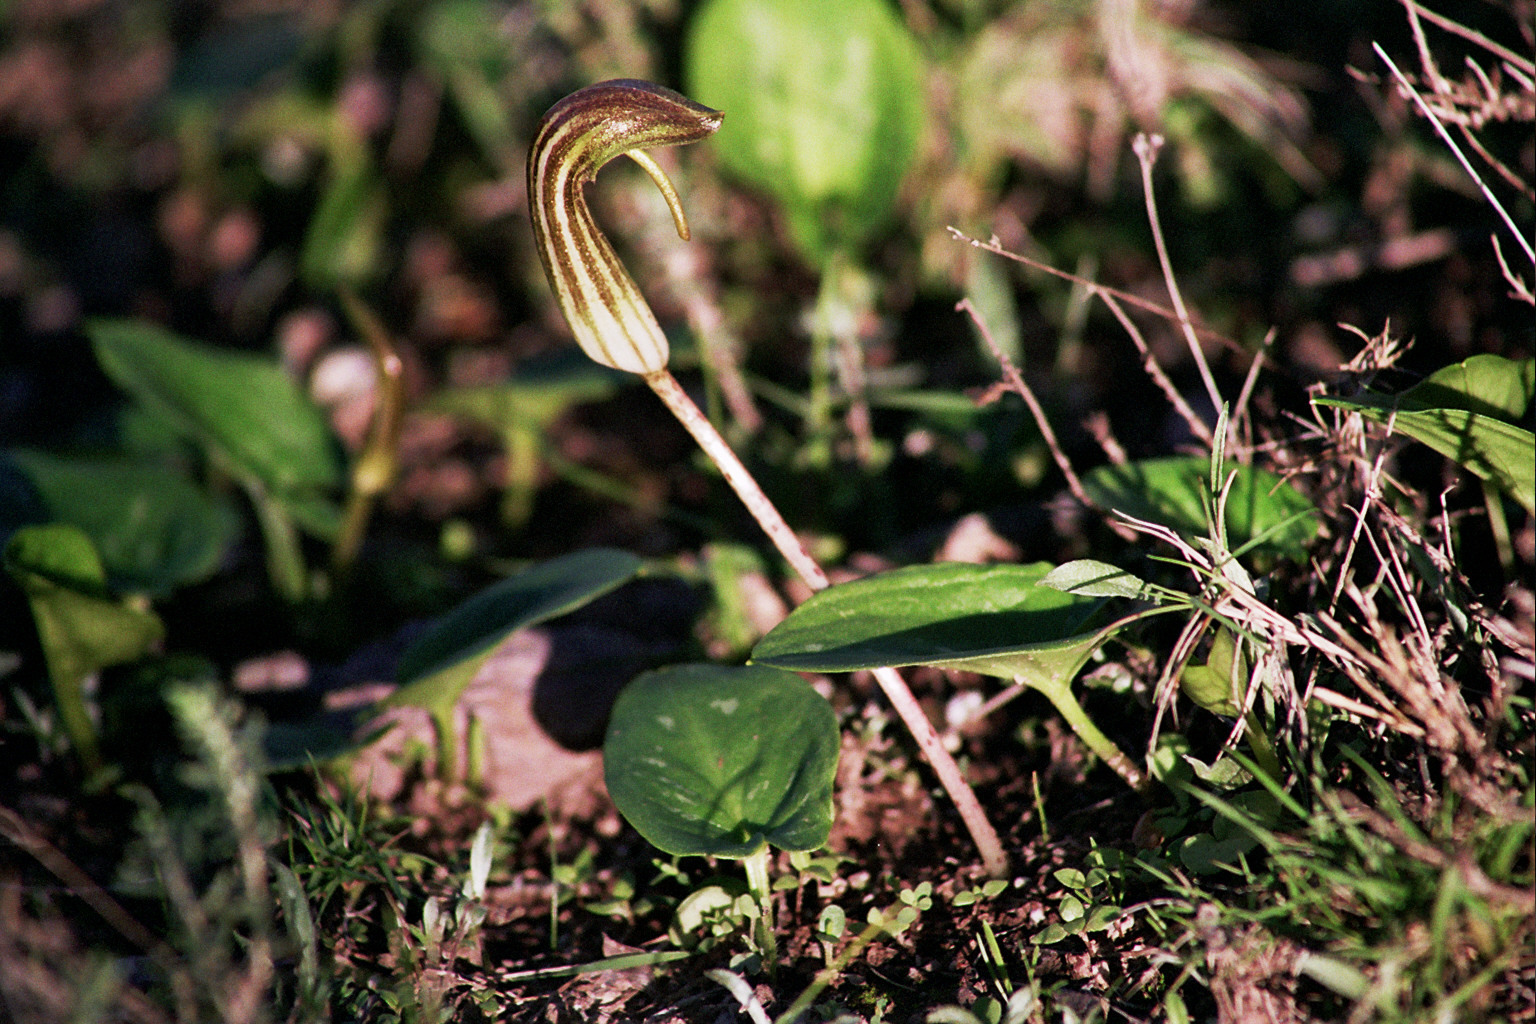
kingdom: Plantae
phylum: Tracheophyta
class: Liliopsida
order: Alismatales
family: Araceae
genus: Arisarum
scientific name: Arisarum vulgare
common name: Common arisarum
